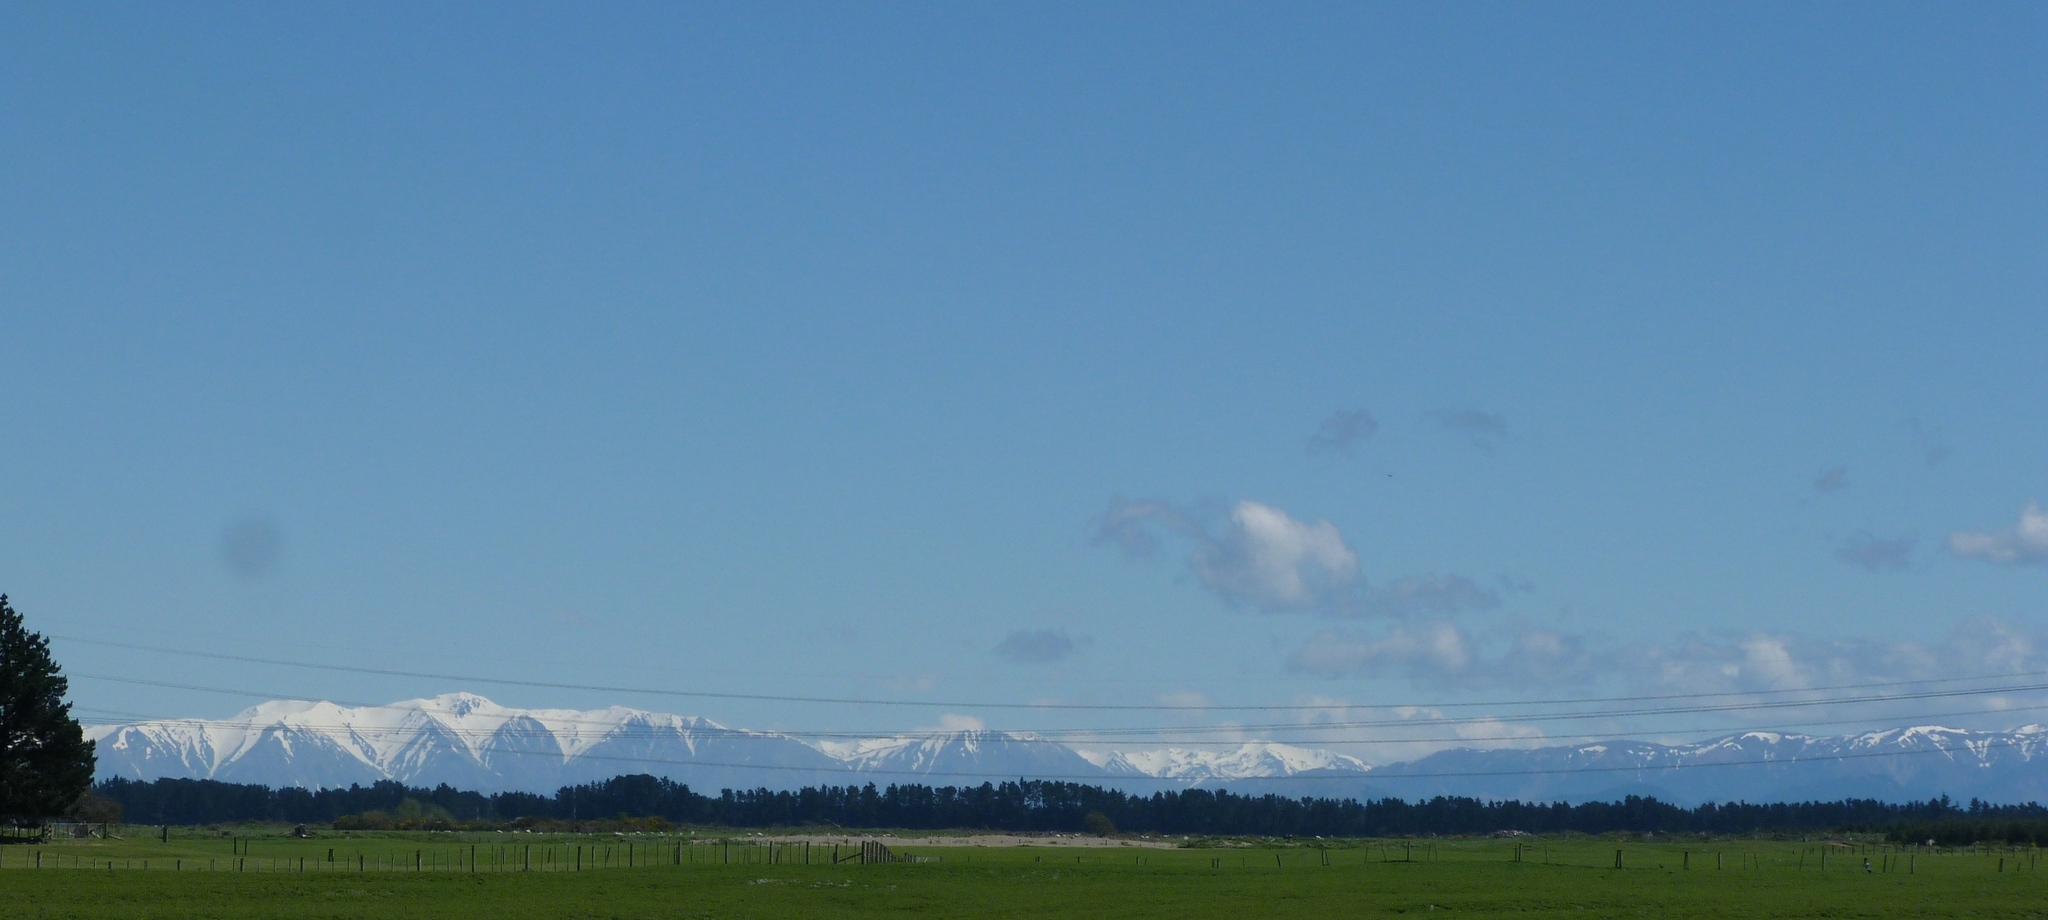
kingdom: Plantae
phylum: Tracheophyta
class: Magnoliopsida
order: Fabales
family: Fabaceae
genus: Sophora
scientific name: Sophora microphylla
